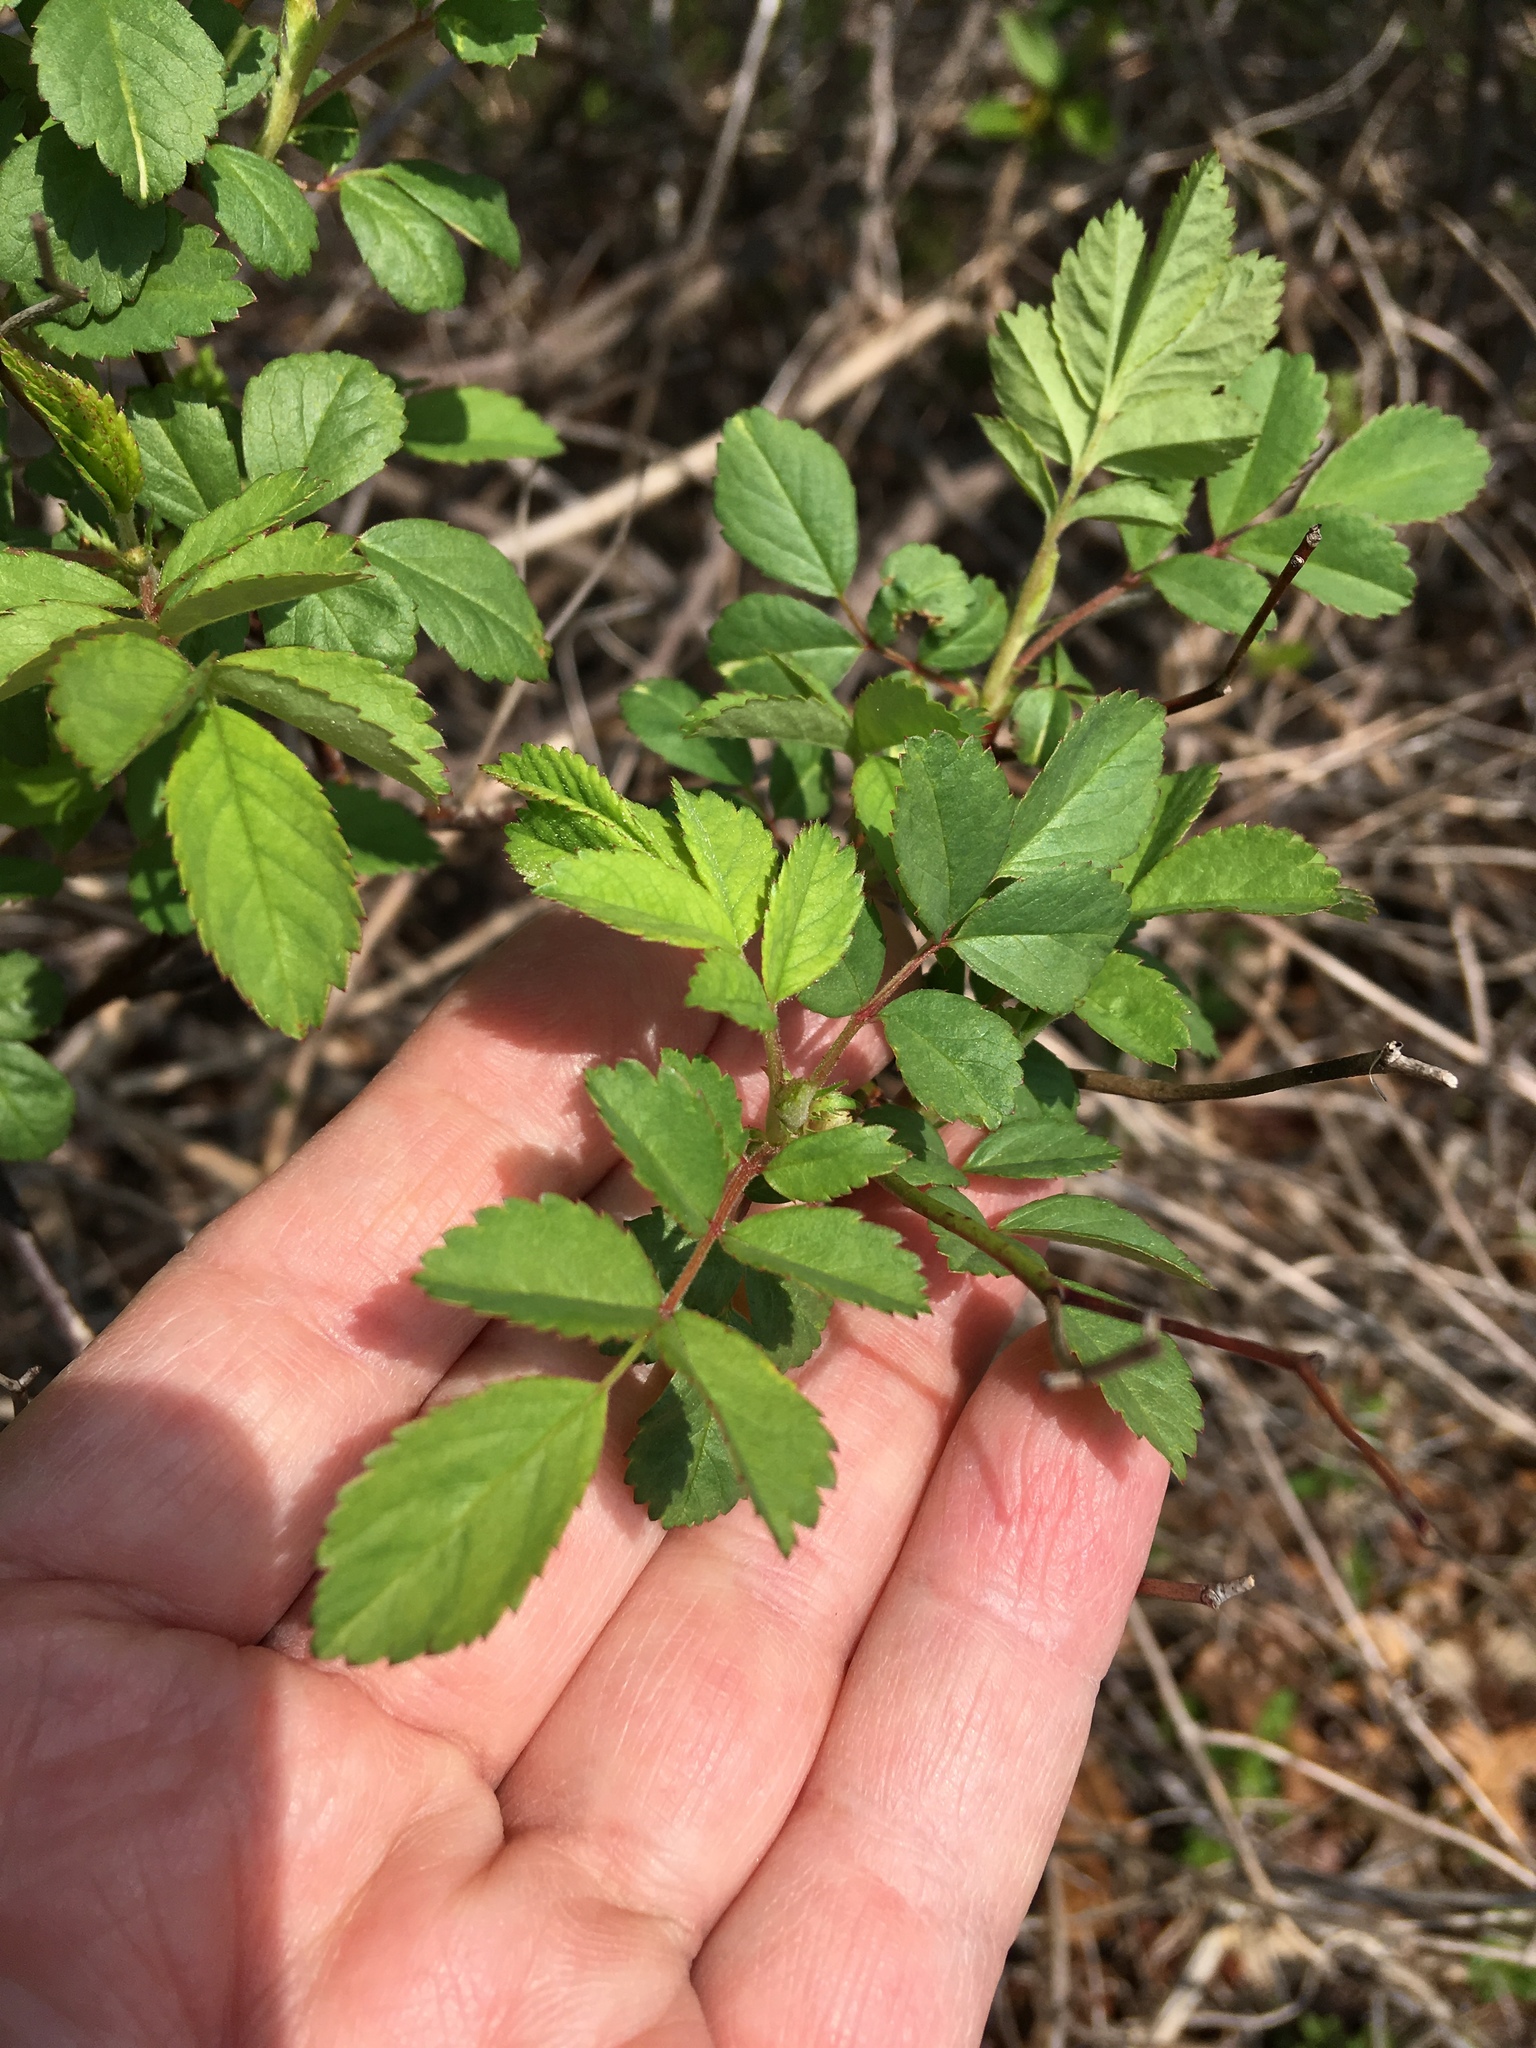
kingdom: Plantae
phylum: Tracheophyta
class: Magnoliopsida
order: Rosales
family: Rosaceae
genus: Rosa
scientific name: Rosa multiflora
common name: Multiflora rose
